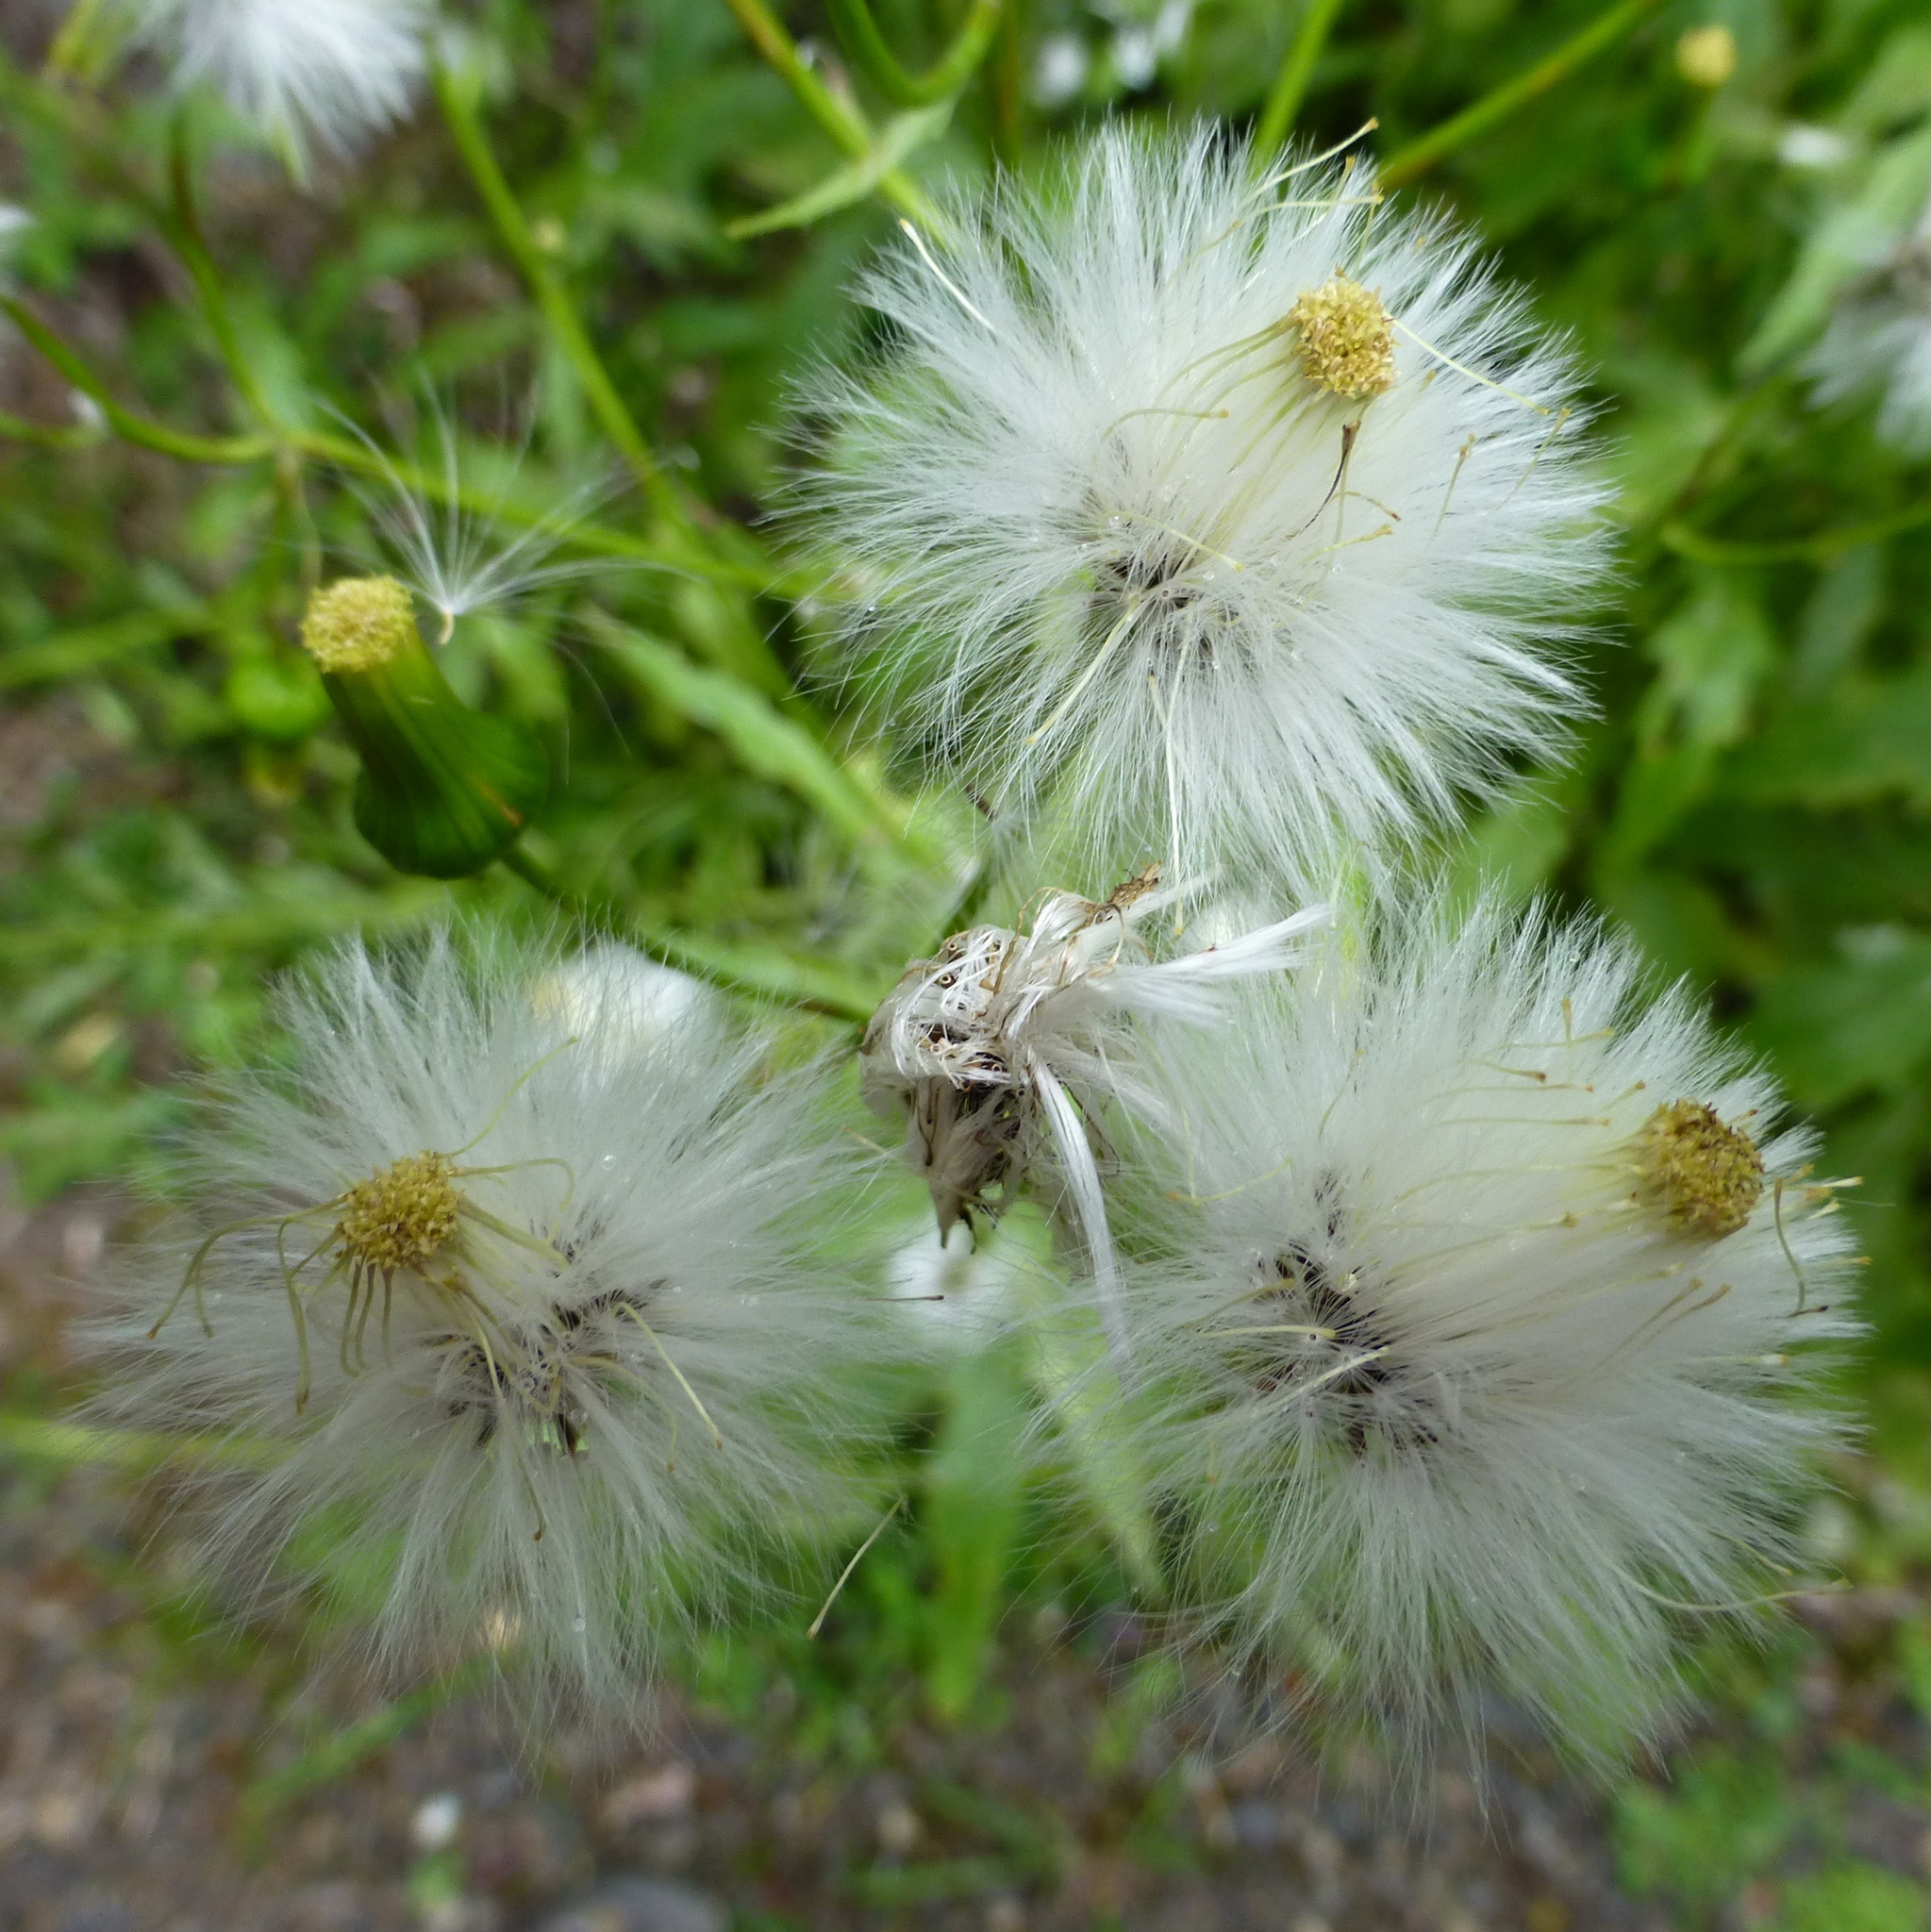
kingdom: Plantae
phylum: Tracheophyta
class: Magnoliopsida
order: Asterales
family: Asteraceae
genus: Erechtites
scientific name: Erechtites hieraciifolius
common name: American burnweed
